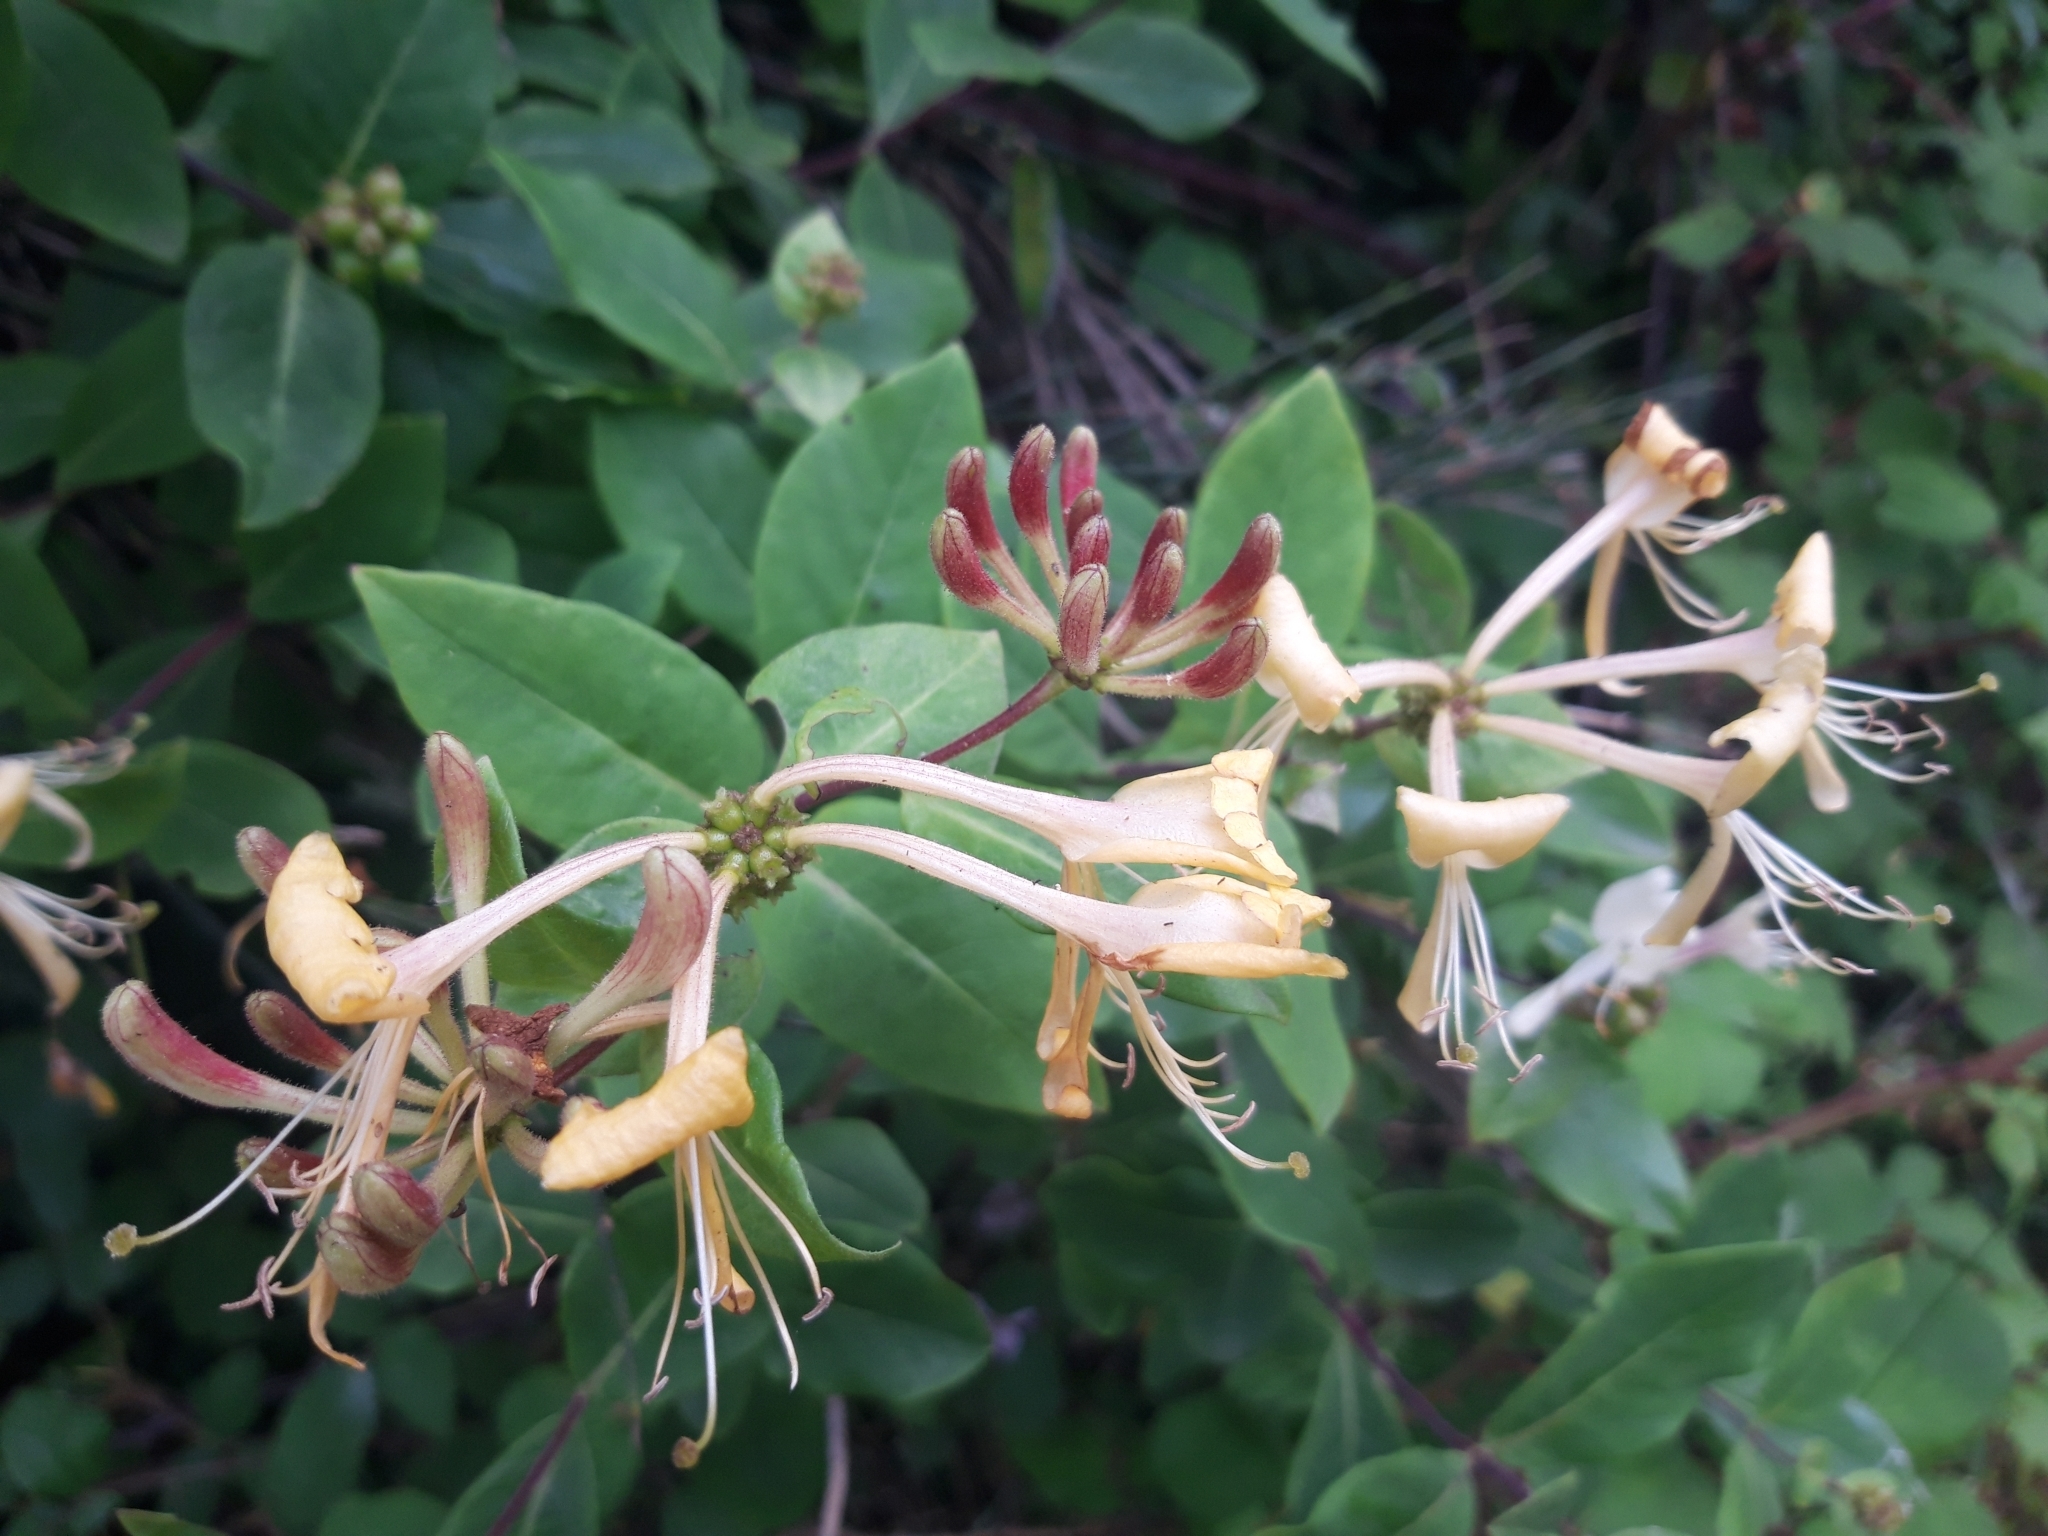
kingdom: Plantae
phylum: Tracheophyta
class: Magnoliopsida
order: Dipsacales
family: Caprifoliaceae
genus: Lonicera
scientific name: Lonicera periclymenum
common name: European honeysuckle
